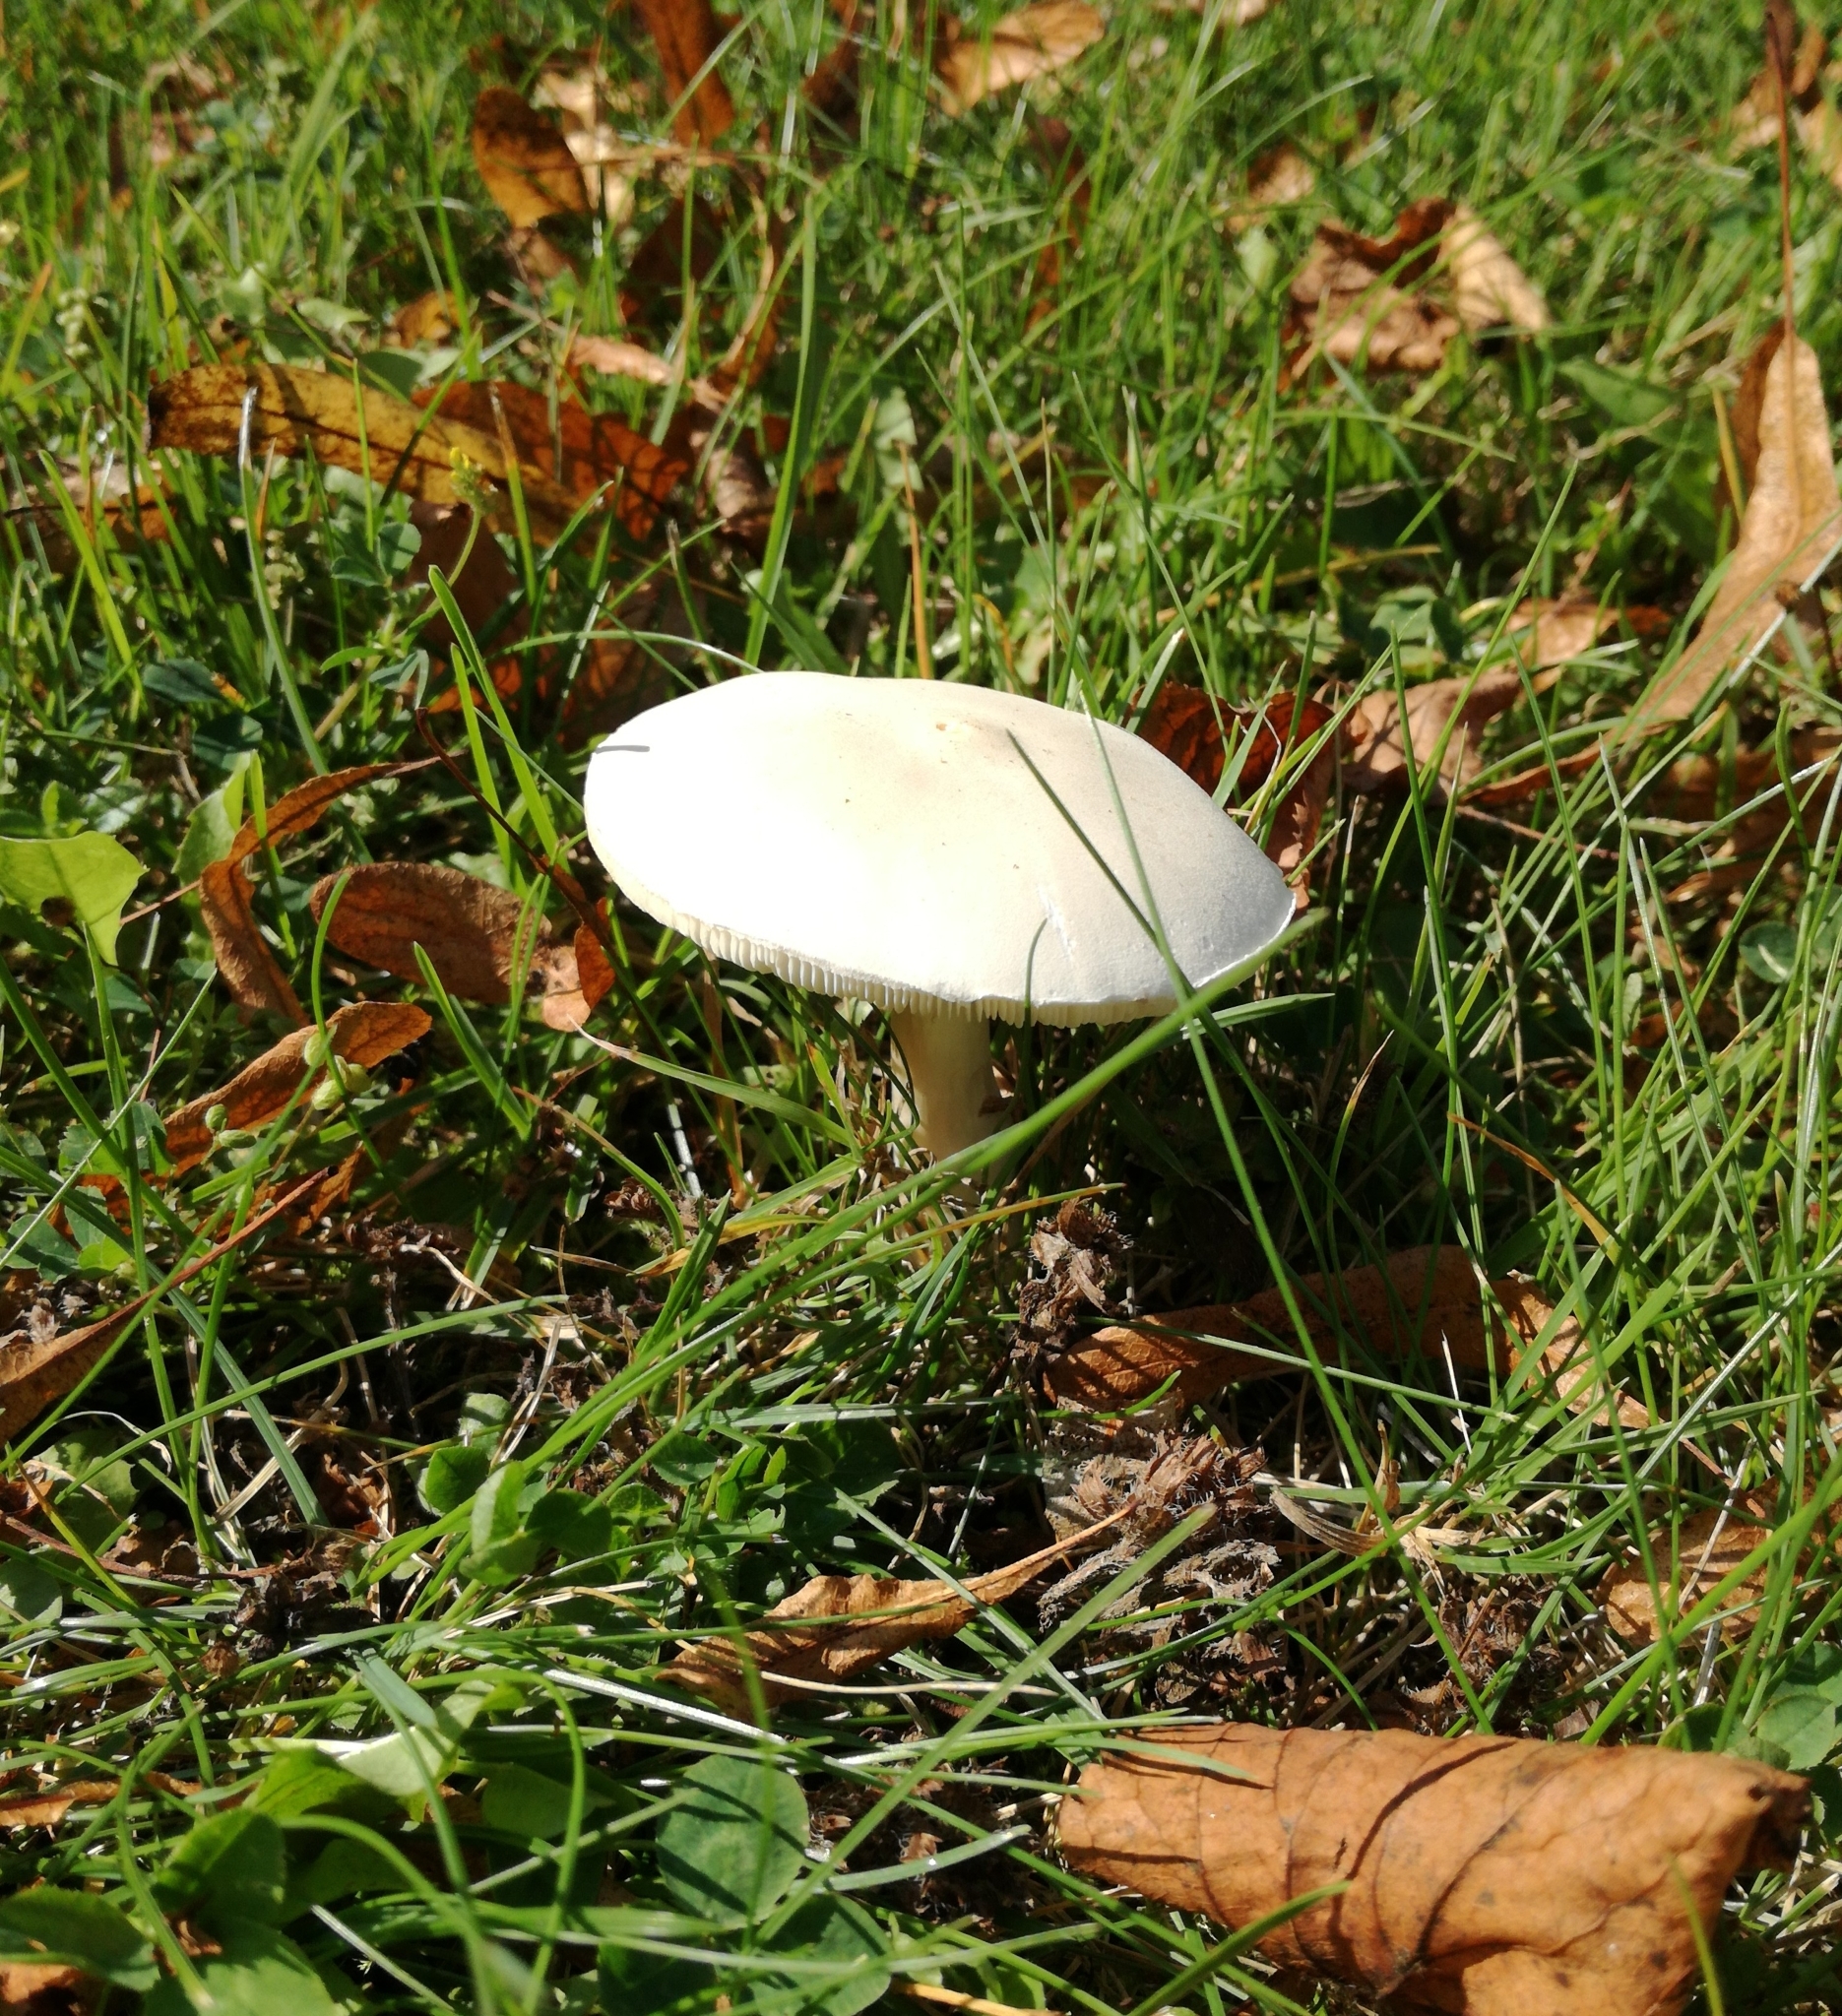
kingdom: Fungi
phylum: Basidiomycota
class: Agaricomycetes
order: Agaricales
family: Agaricaceae
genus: Leucoagaricus
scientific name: Leucoagaricus leucothites
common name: White dapperling
